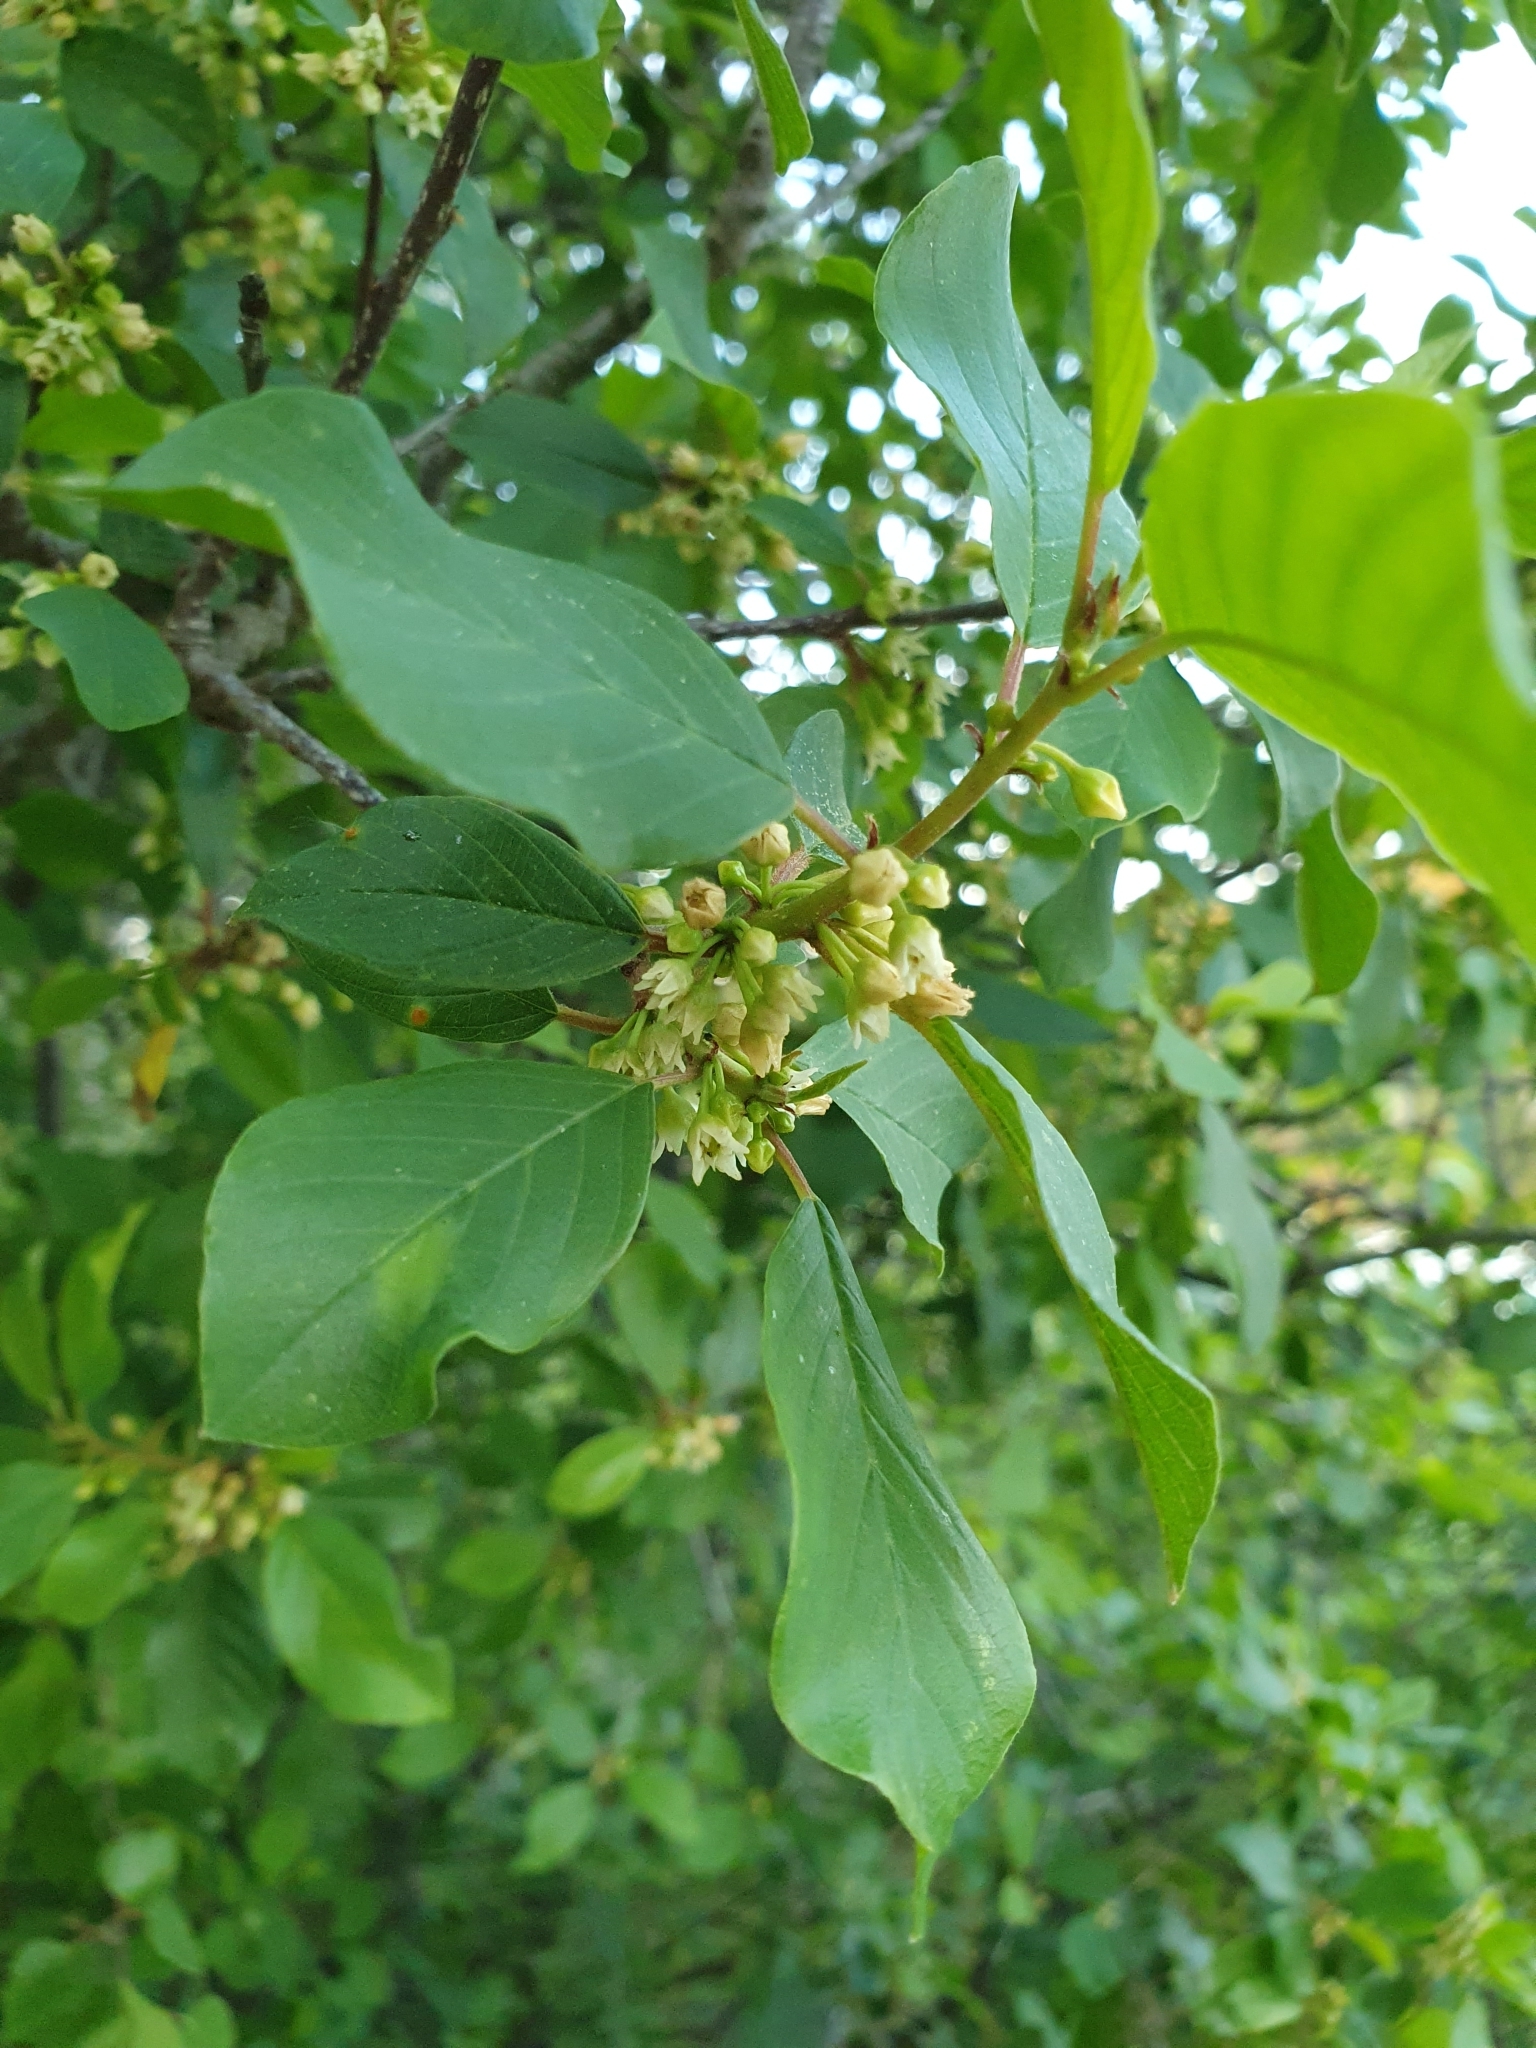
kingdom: Plantae
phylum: Tracheophyta
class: Magnoliopsida
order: Rosales
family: Rhamnaceae
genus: Frangula
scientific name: Frangula alnus
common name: Alder buckthorn
